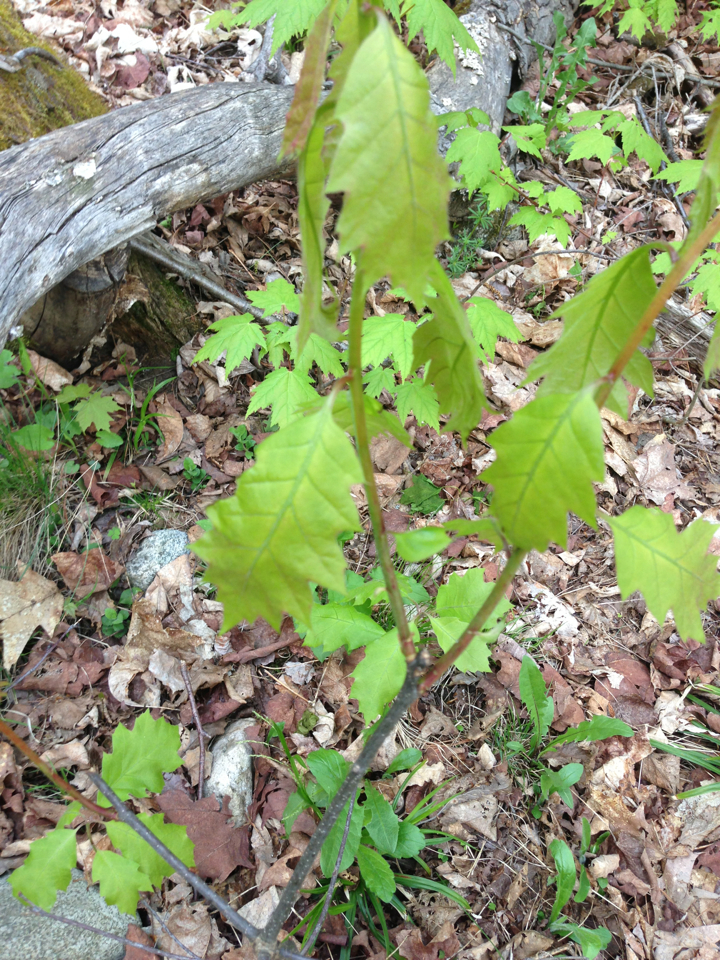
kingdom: Plantae
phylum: Tracheophyta
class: Magnoliopsida
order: Fagales
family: Fagaceae
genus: Quercus
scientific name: Quercus rubra
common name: Red oak
